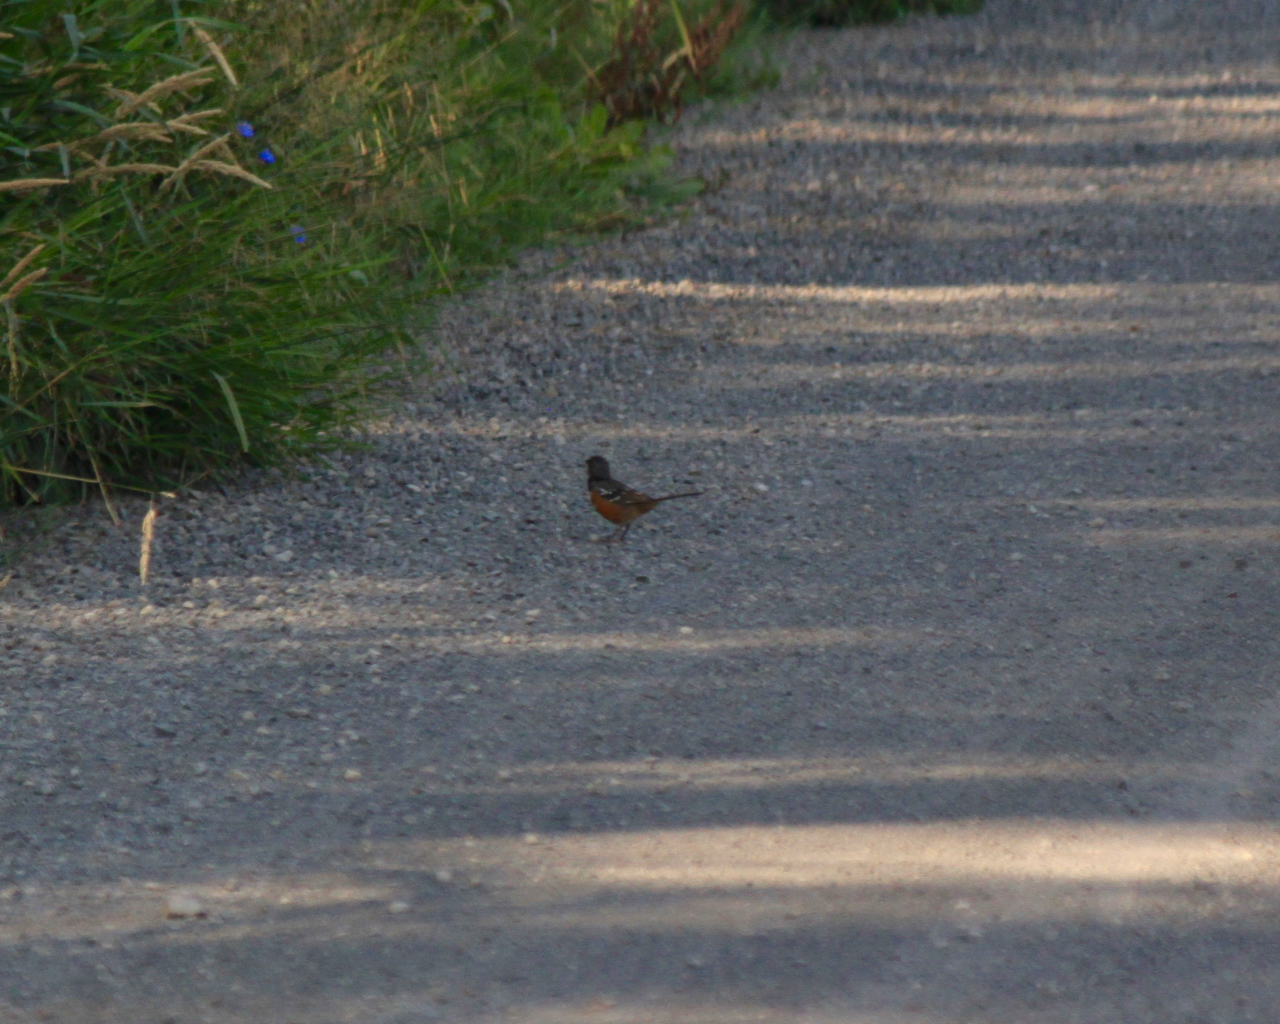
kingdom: Animalia
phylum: Chordata
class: Aves
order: Passeriformes
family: Passerellidae
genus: Pipilo
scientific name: Pipilo maculatus
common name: Spotted towhee
